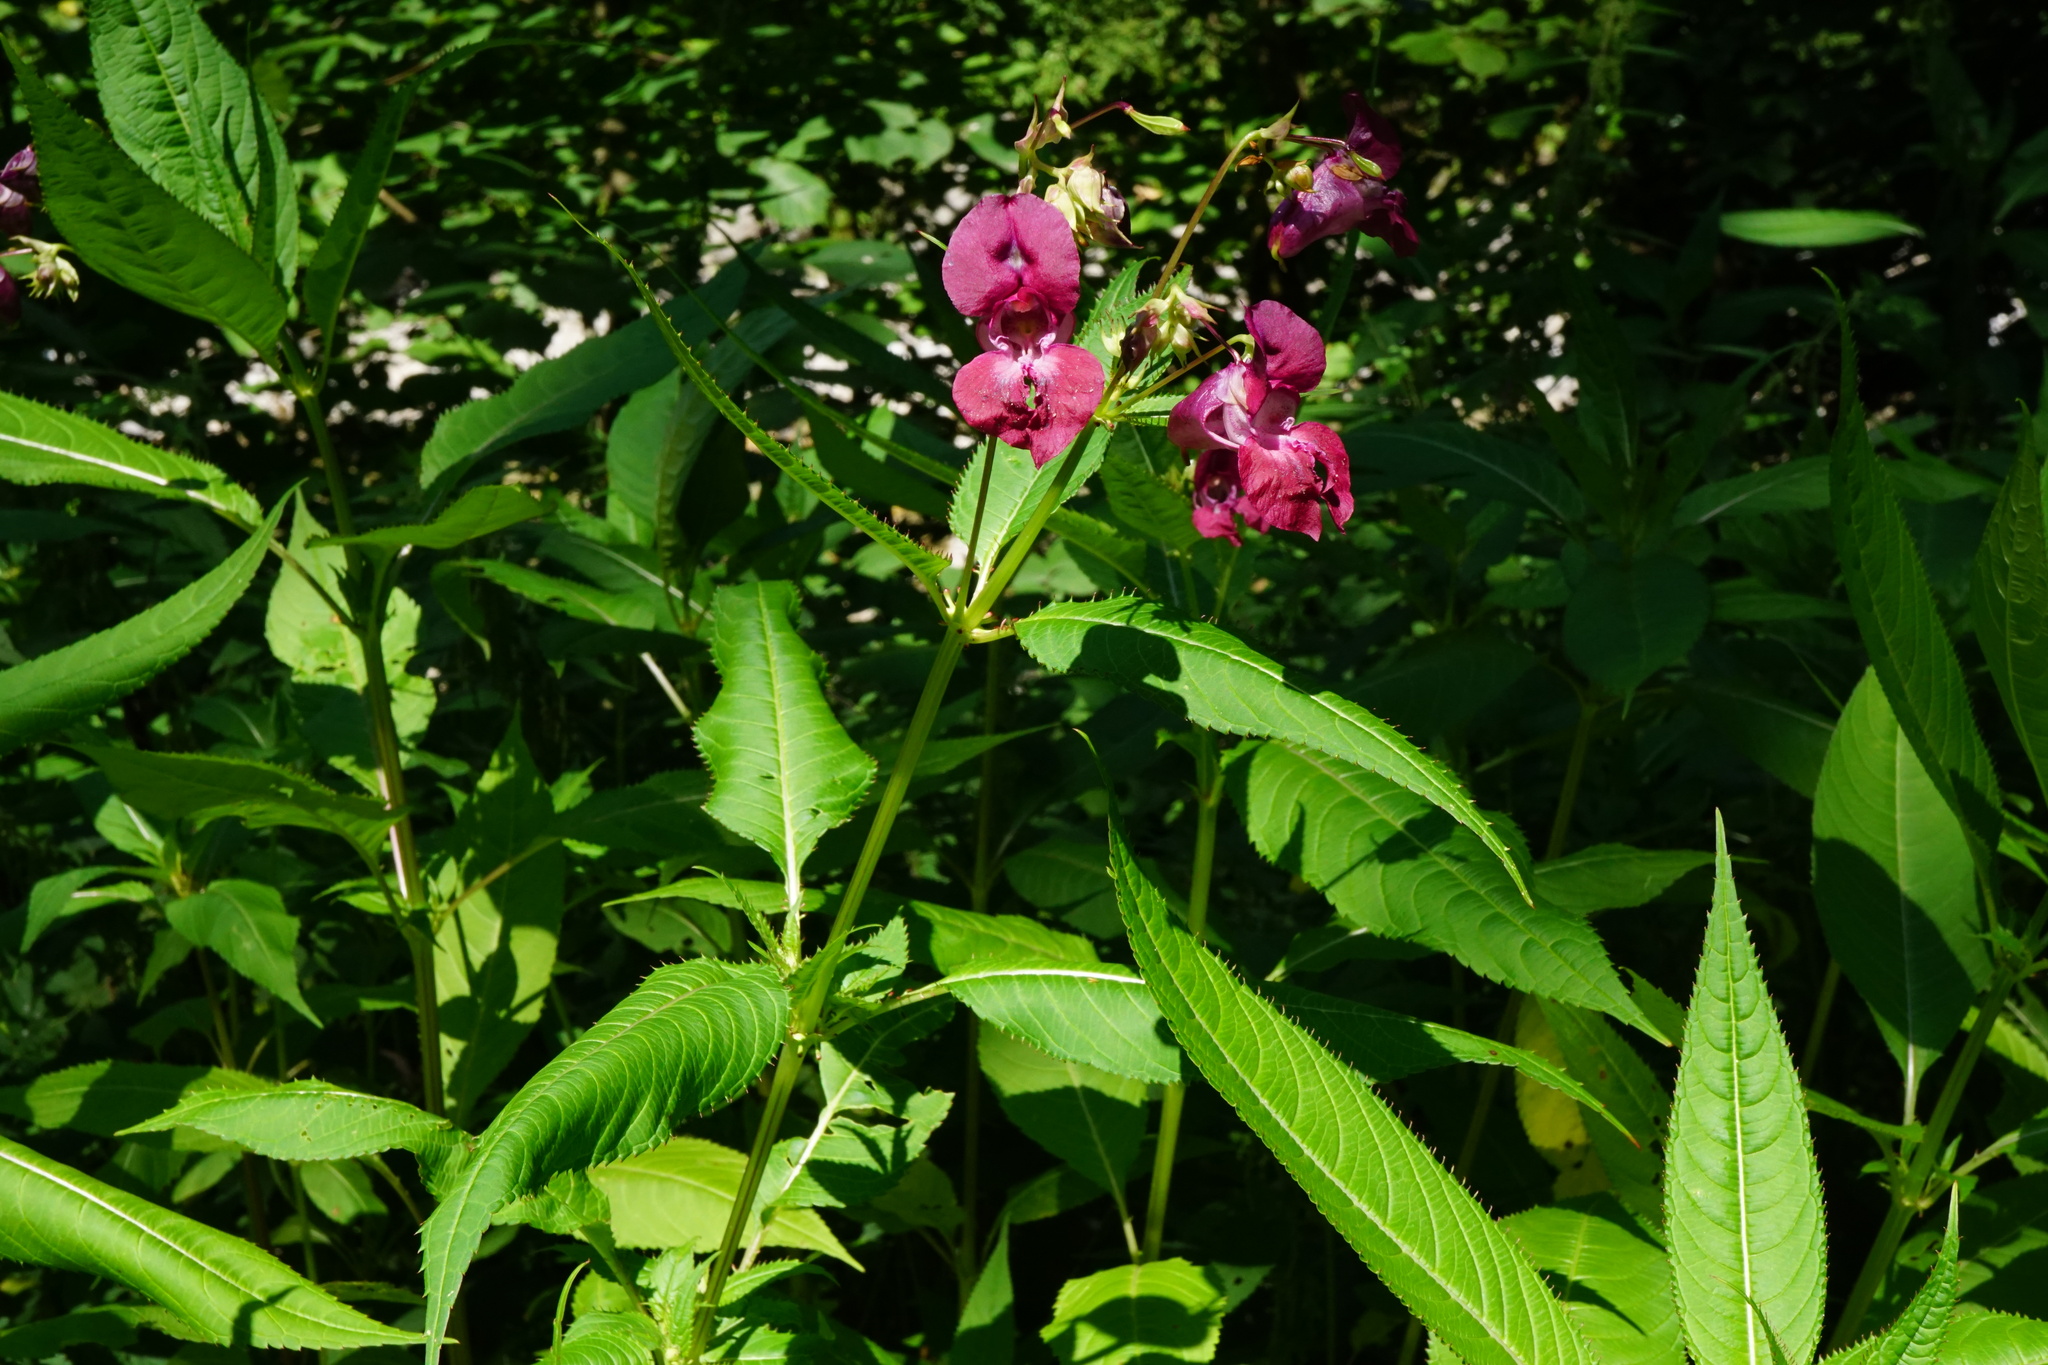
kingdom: Plantae
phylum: Tracheophyta
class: Magnoliopsida
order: Ericales
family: Balsaminaceae
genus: Impatiens
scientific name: Impatiens glandulifera
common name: Himalayan balsam
